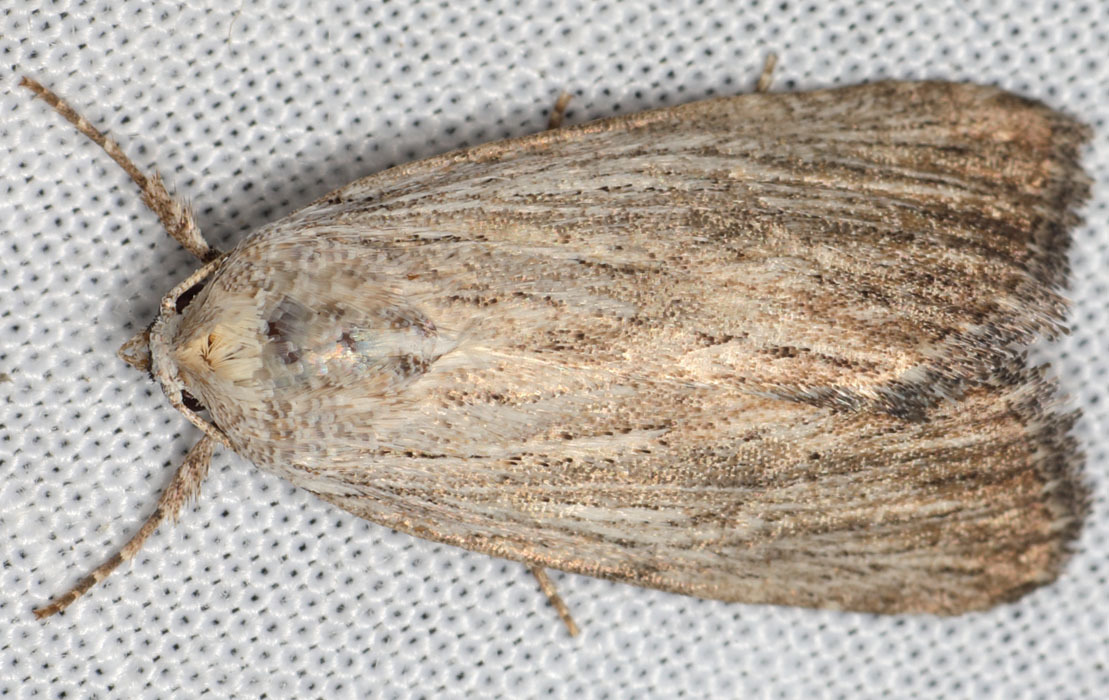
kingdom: Animalia
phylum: Arthropoda
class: Insecta
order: Lepidoptera
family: Noctuidae
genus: Catabena
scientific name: Catabena lineolata
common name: Fine-lined sallow
